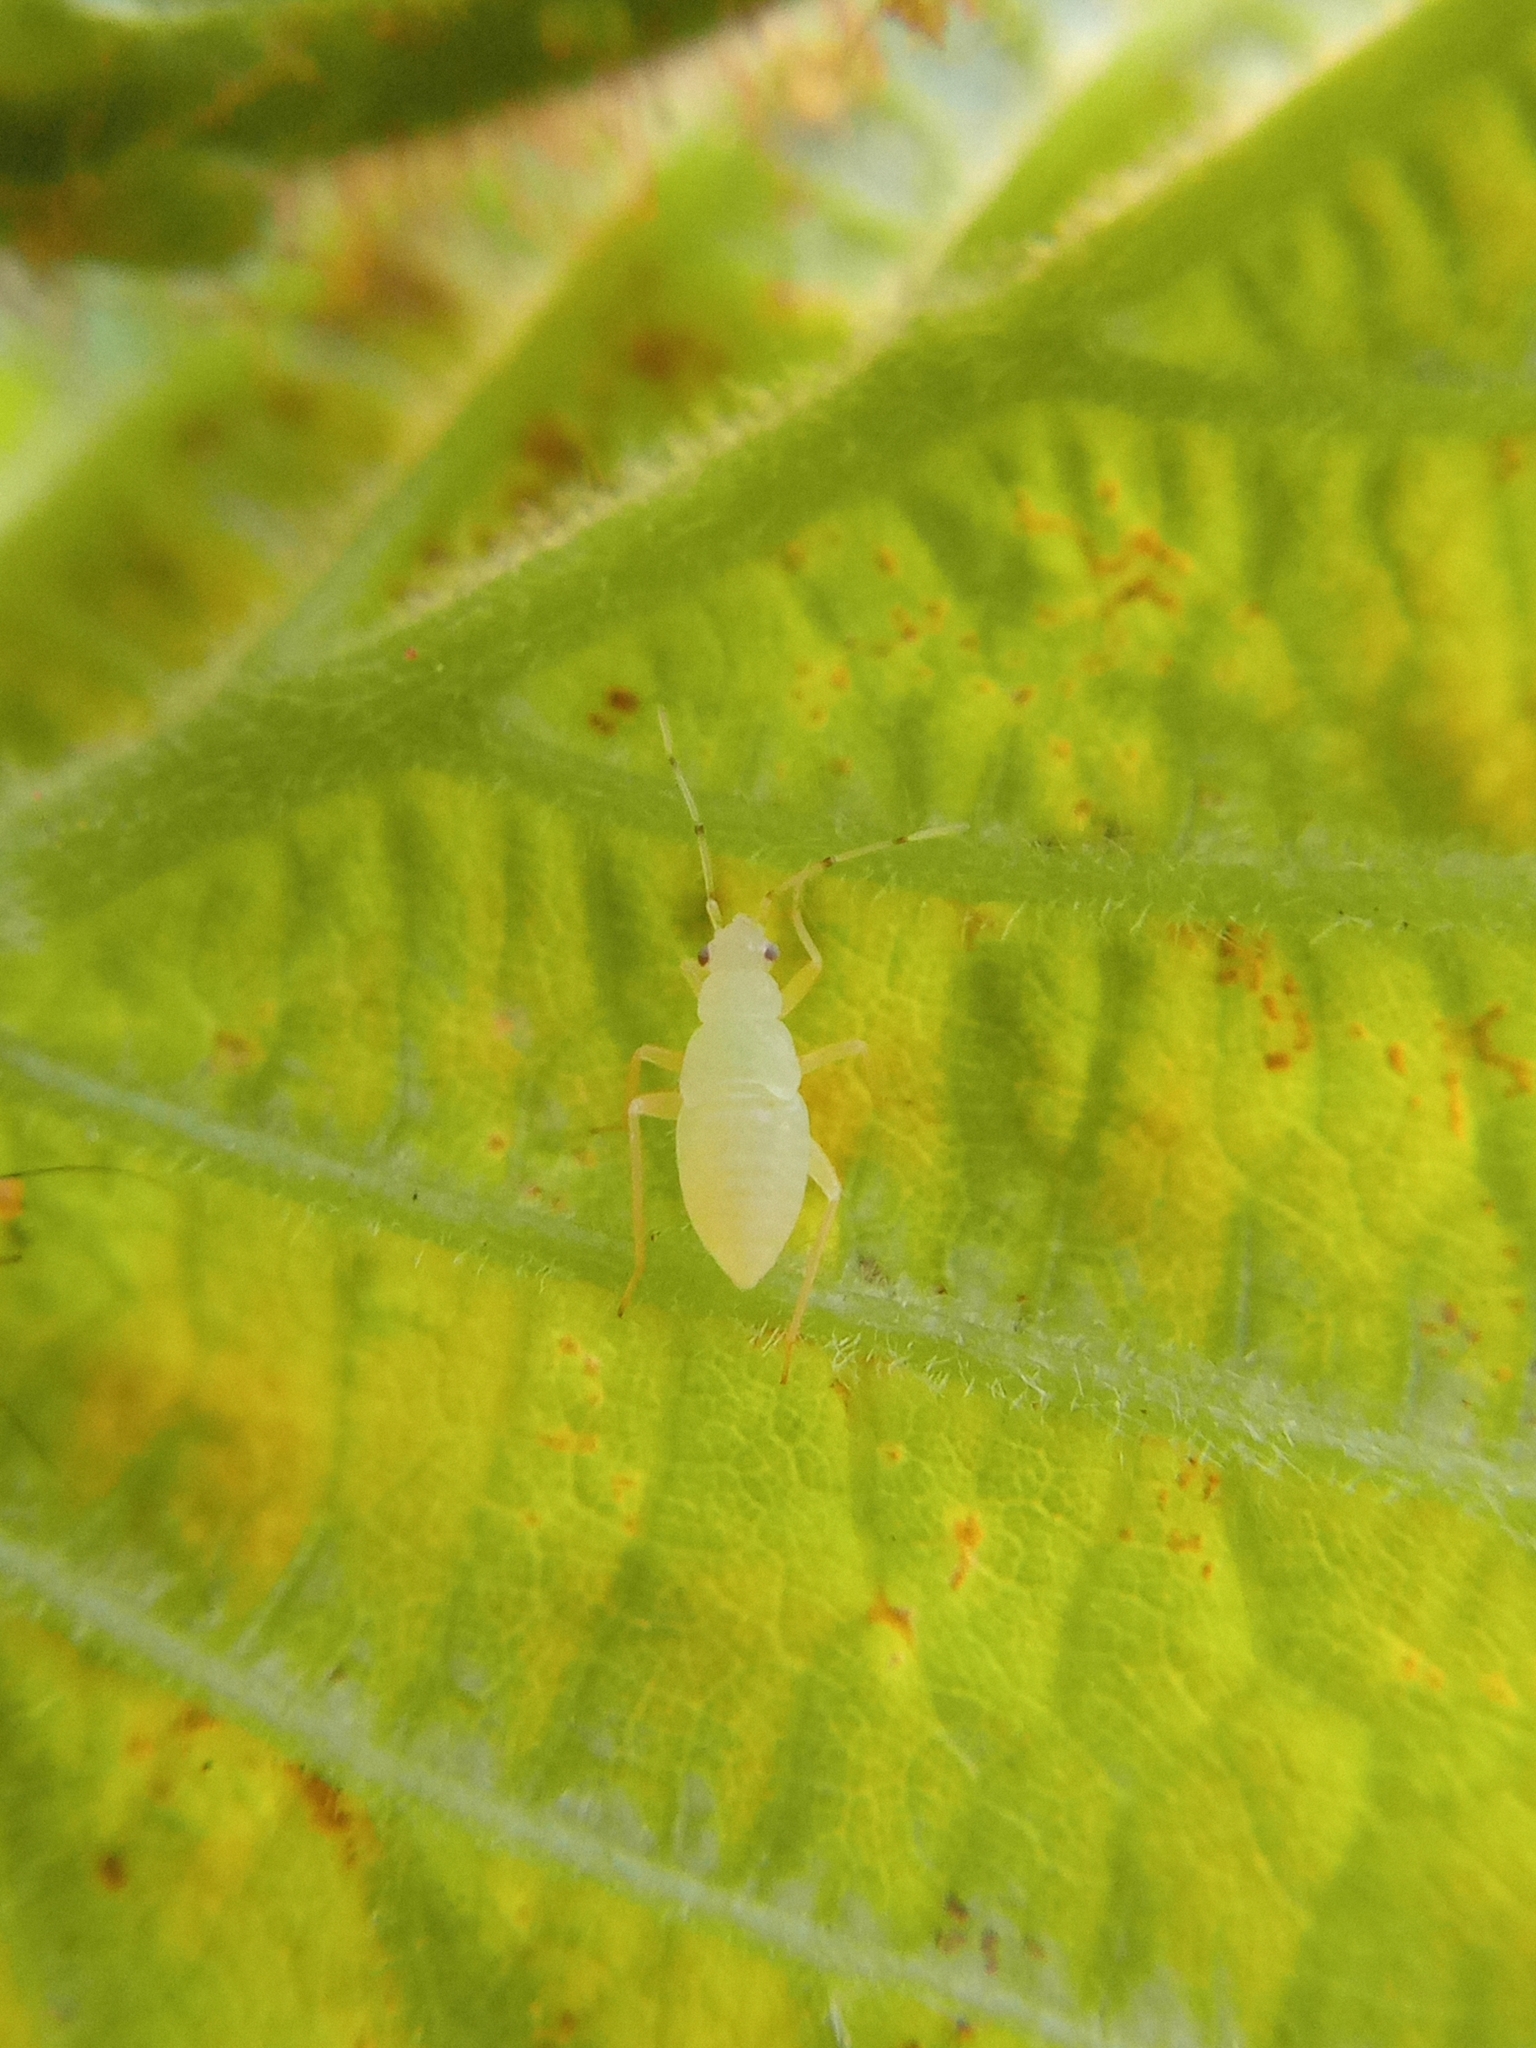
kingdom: Animalia
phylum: Arthropoda
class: Insecta
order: Hemiptera
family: Miridae
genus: Phylus
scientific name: Phylus coryli
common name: Plant bug
